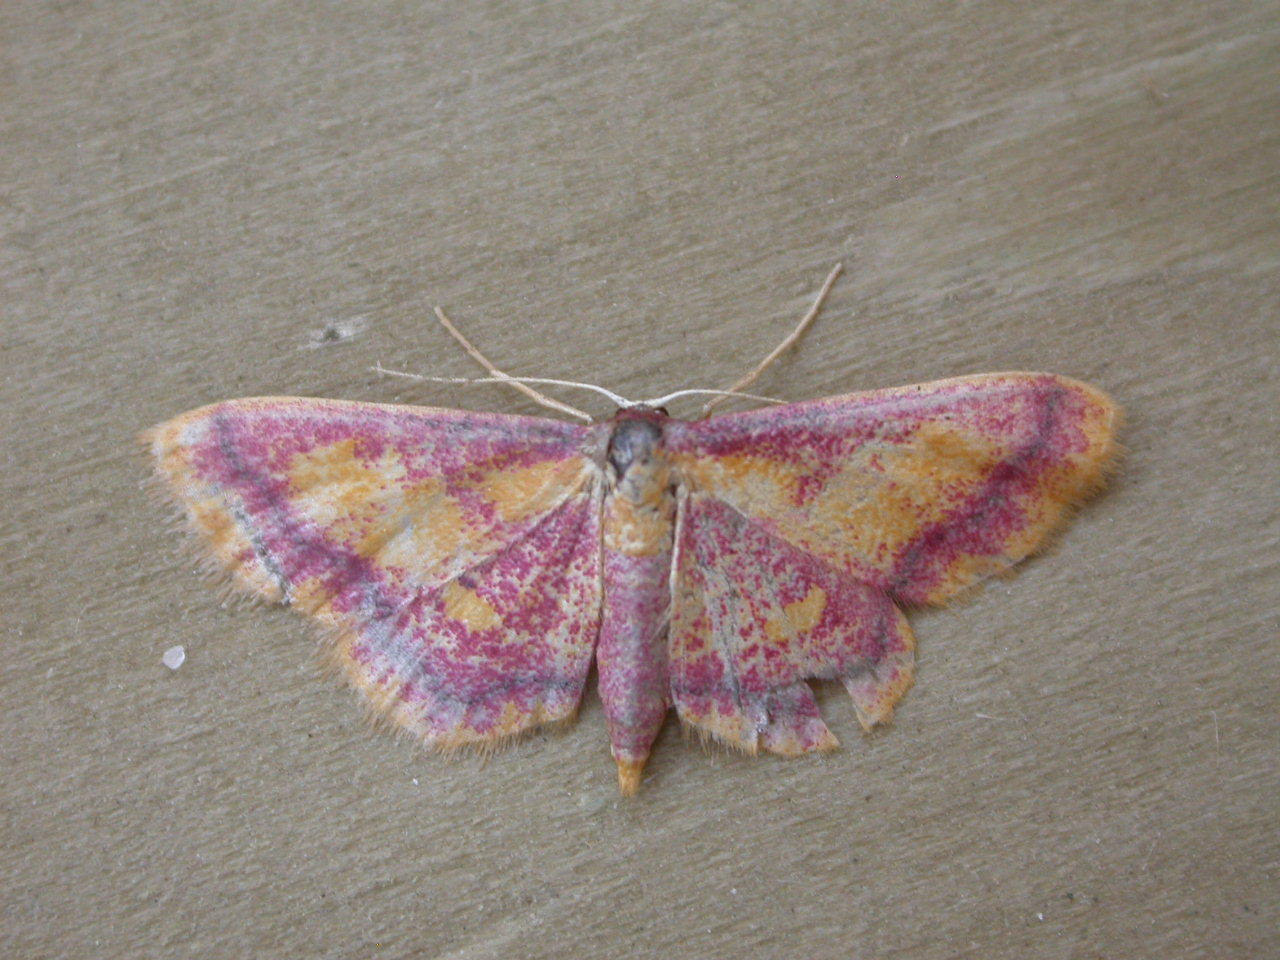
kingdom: Animalia
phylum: Arthropoda
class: Insecta
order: Lepidoptera
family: Geometridae
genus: Idaea
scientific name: Idaea muricata
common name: Purple-bordered gold
